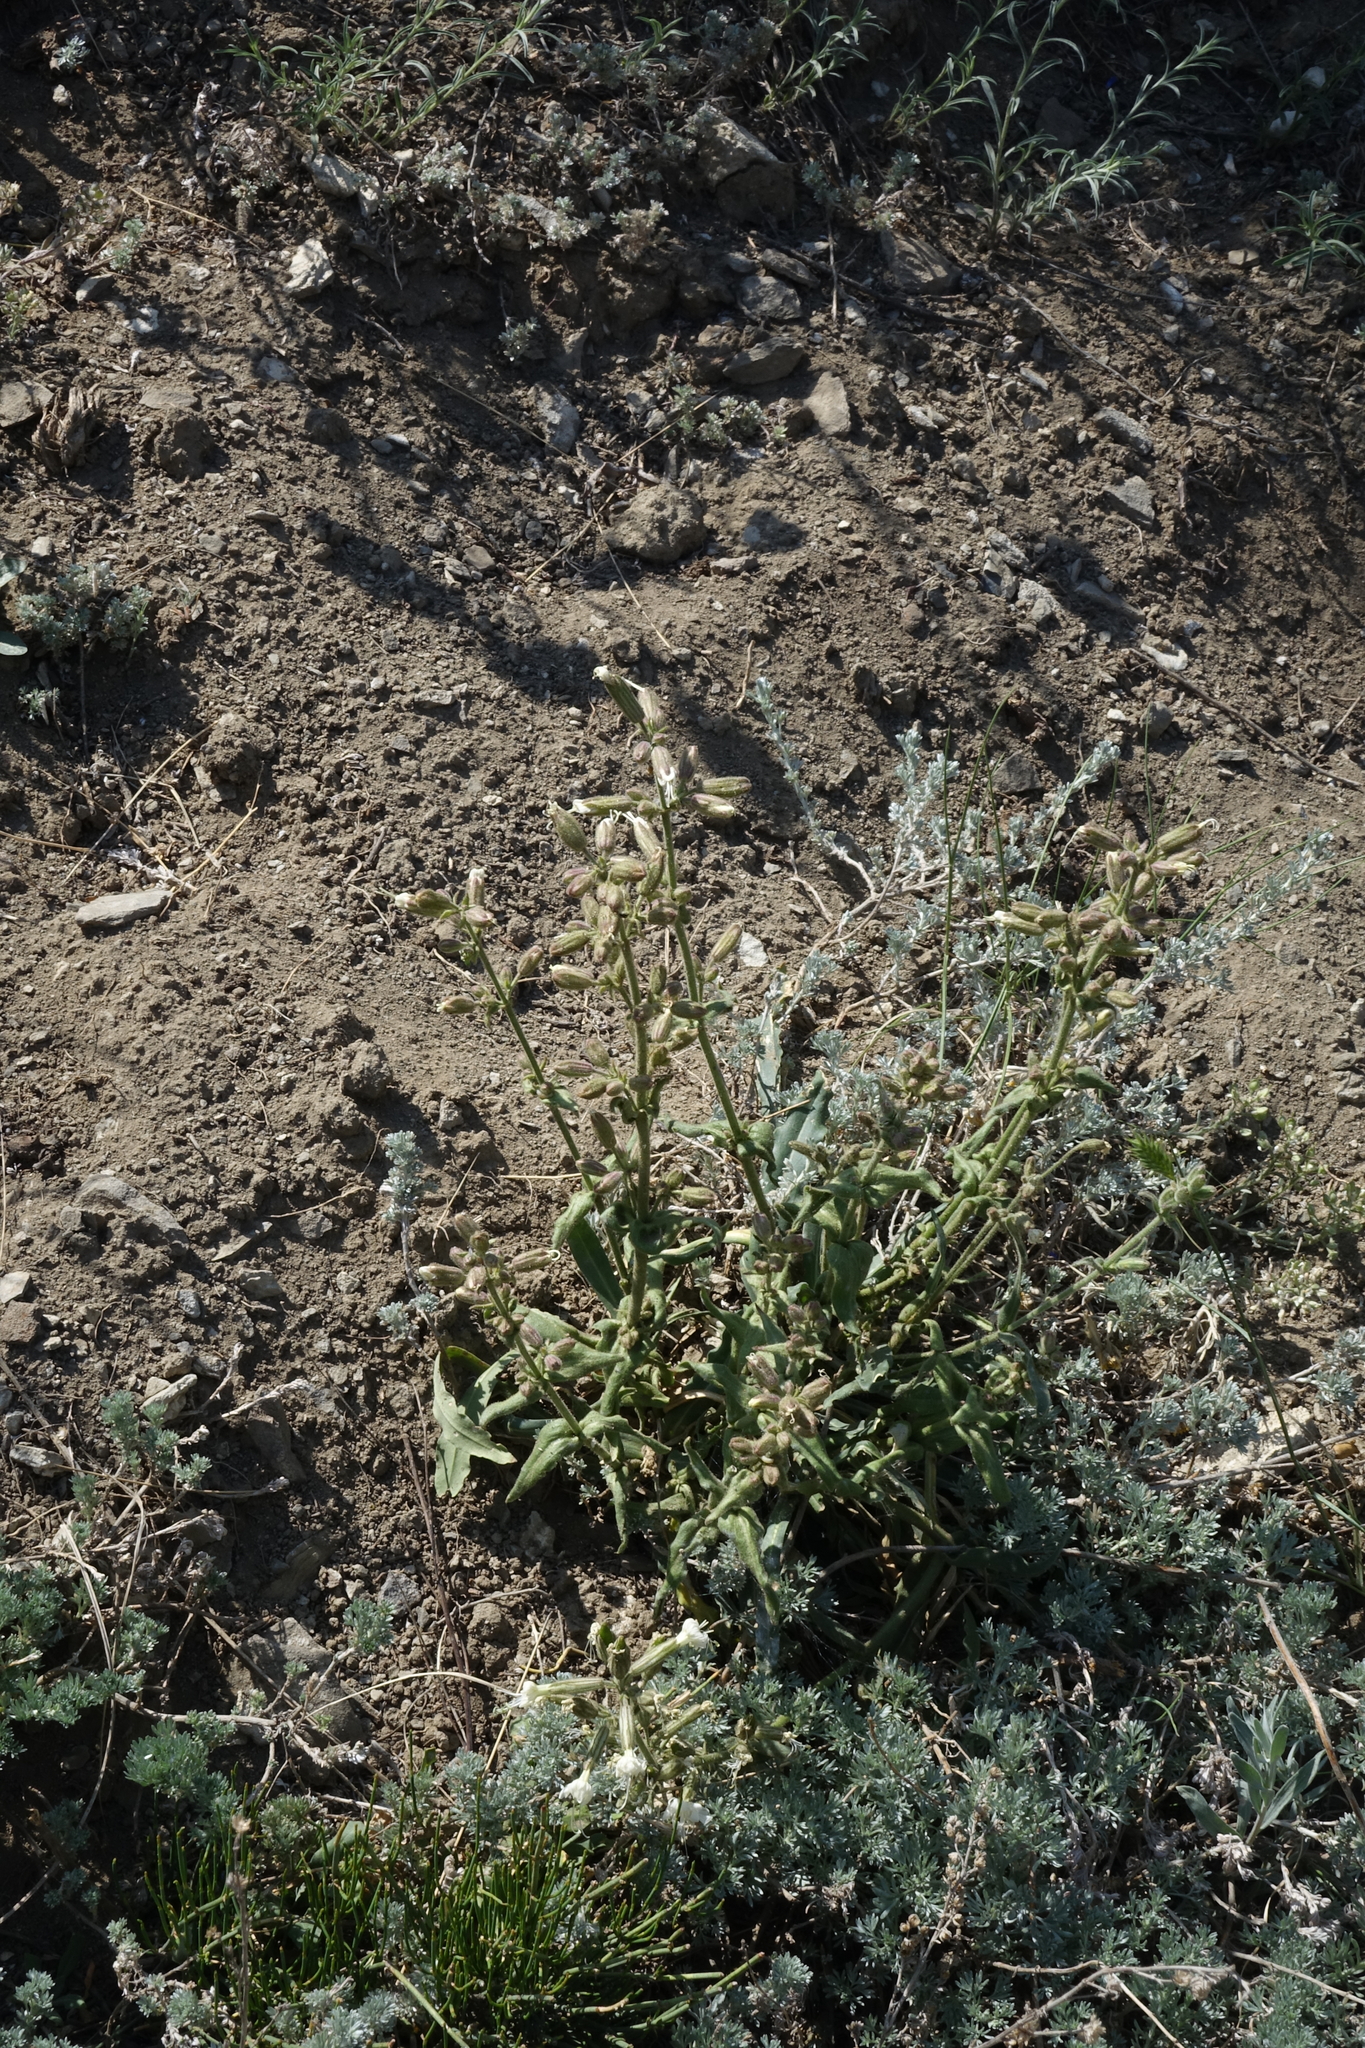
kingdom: Plantae
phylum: Tracheophyta
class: Magnoliopsida
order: Caryophyllales
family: Caryophyllaceae
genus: Silene
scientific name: Silene viscosa
